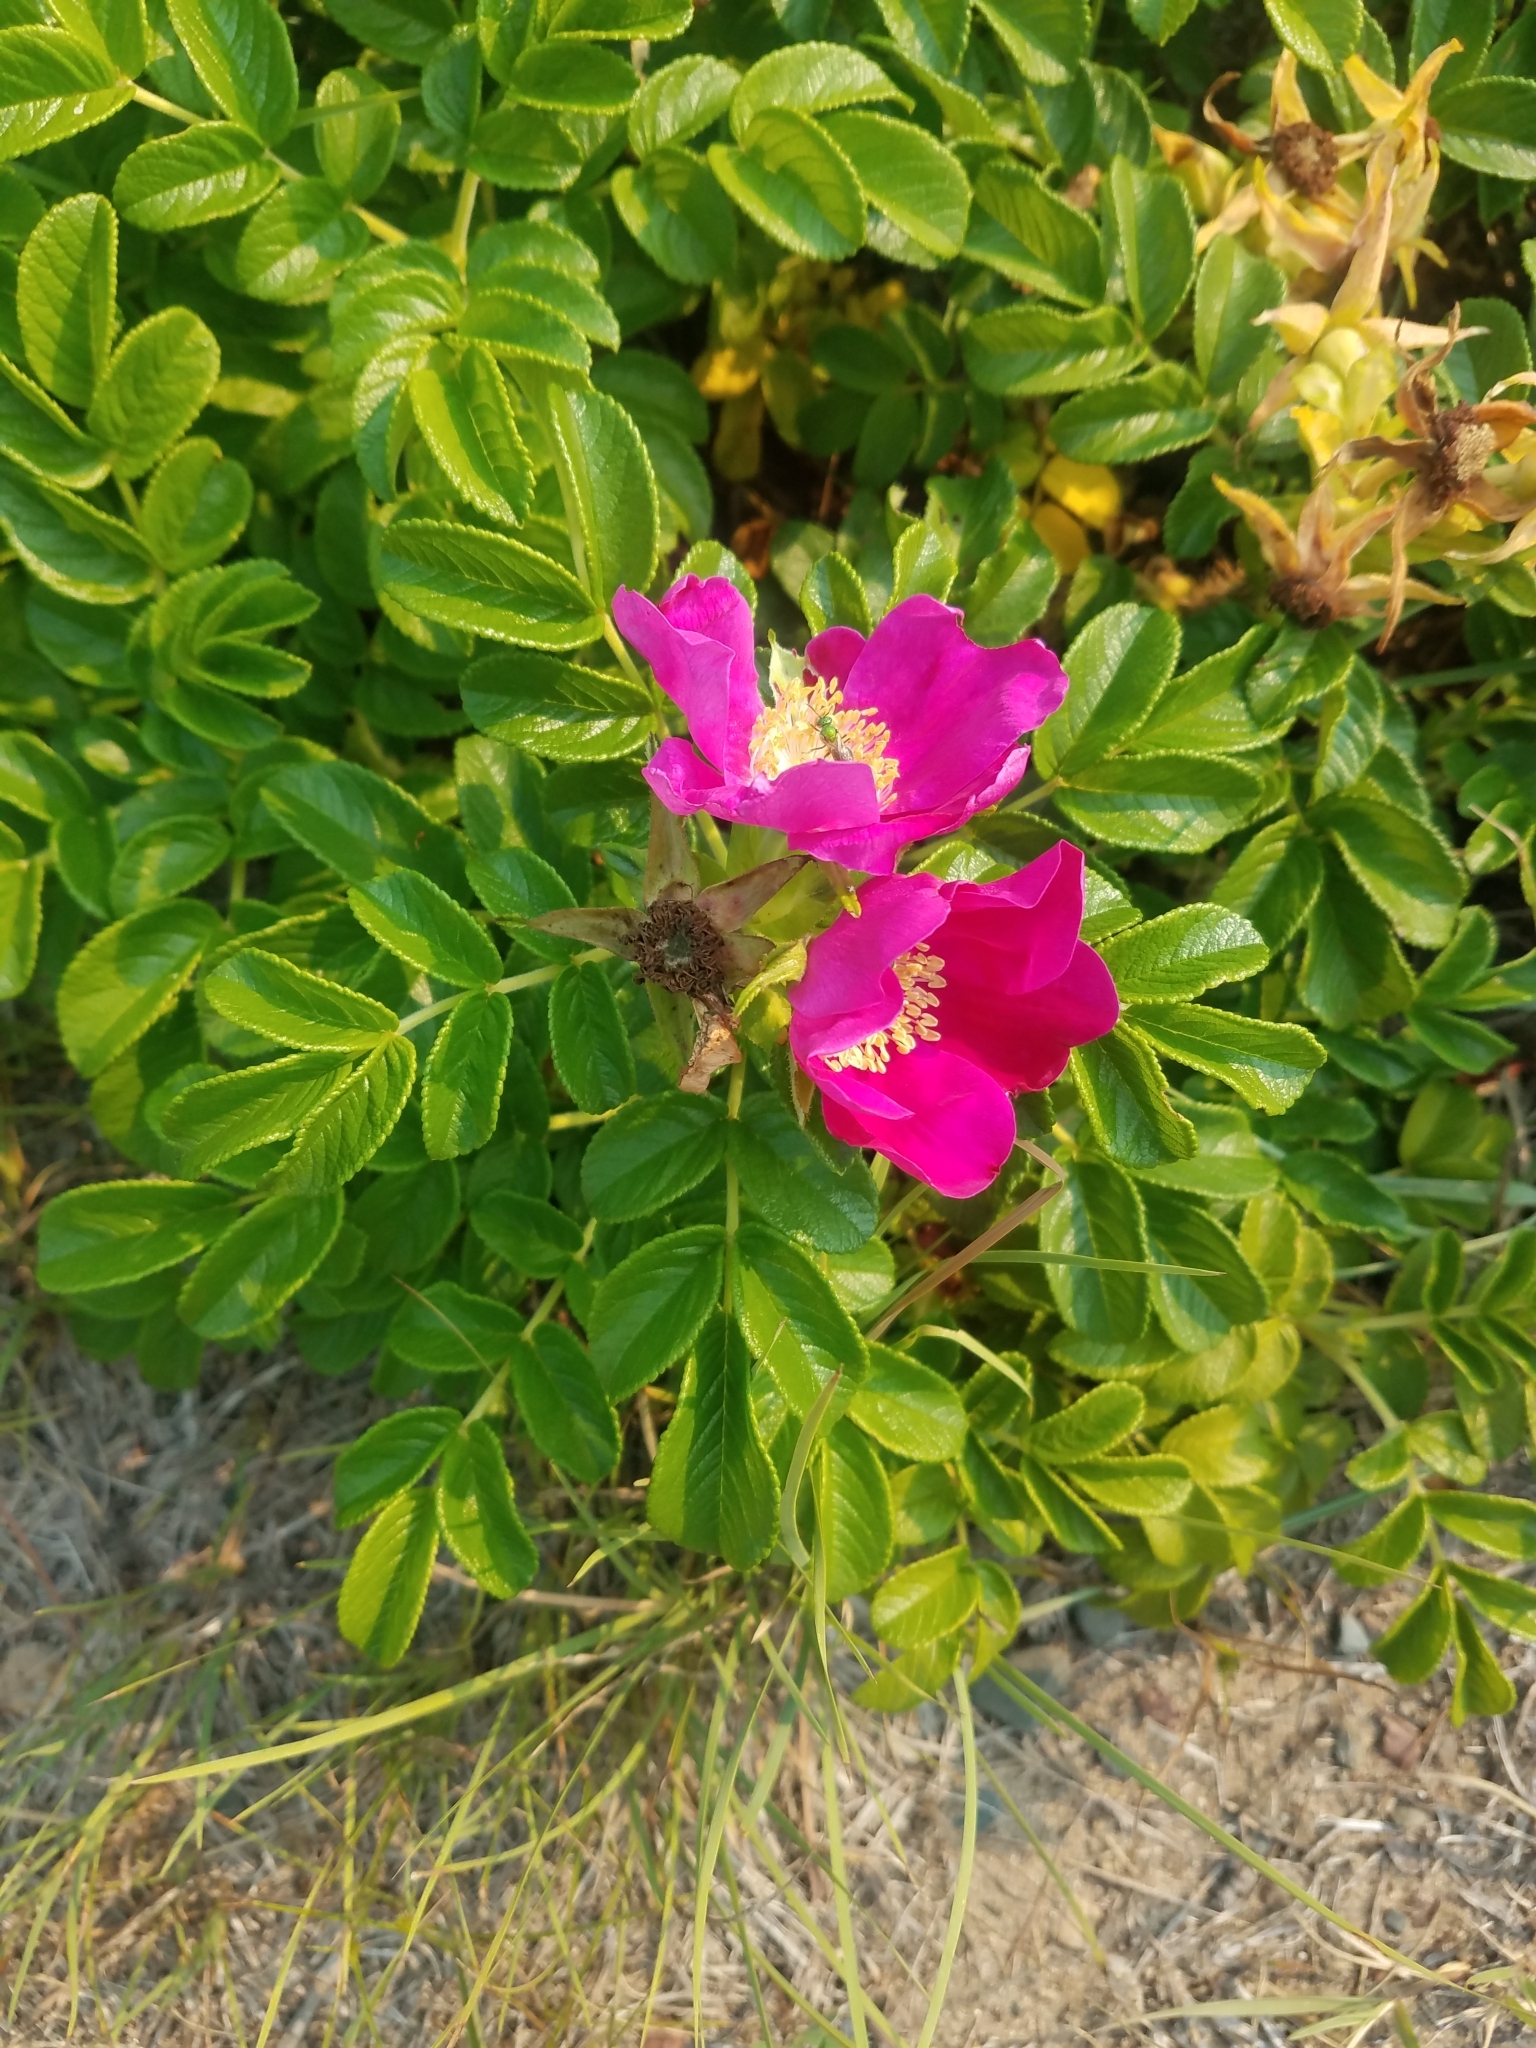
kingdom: Plantae
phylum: Tracheophyta
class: Magnoliopsida
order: Rosales
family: Rosaceae
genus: Rosa
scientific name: Rosa rugosa
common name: Japanese rose
